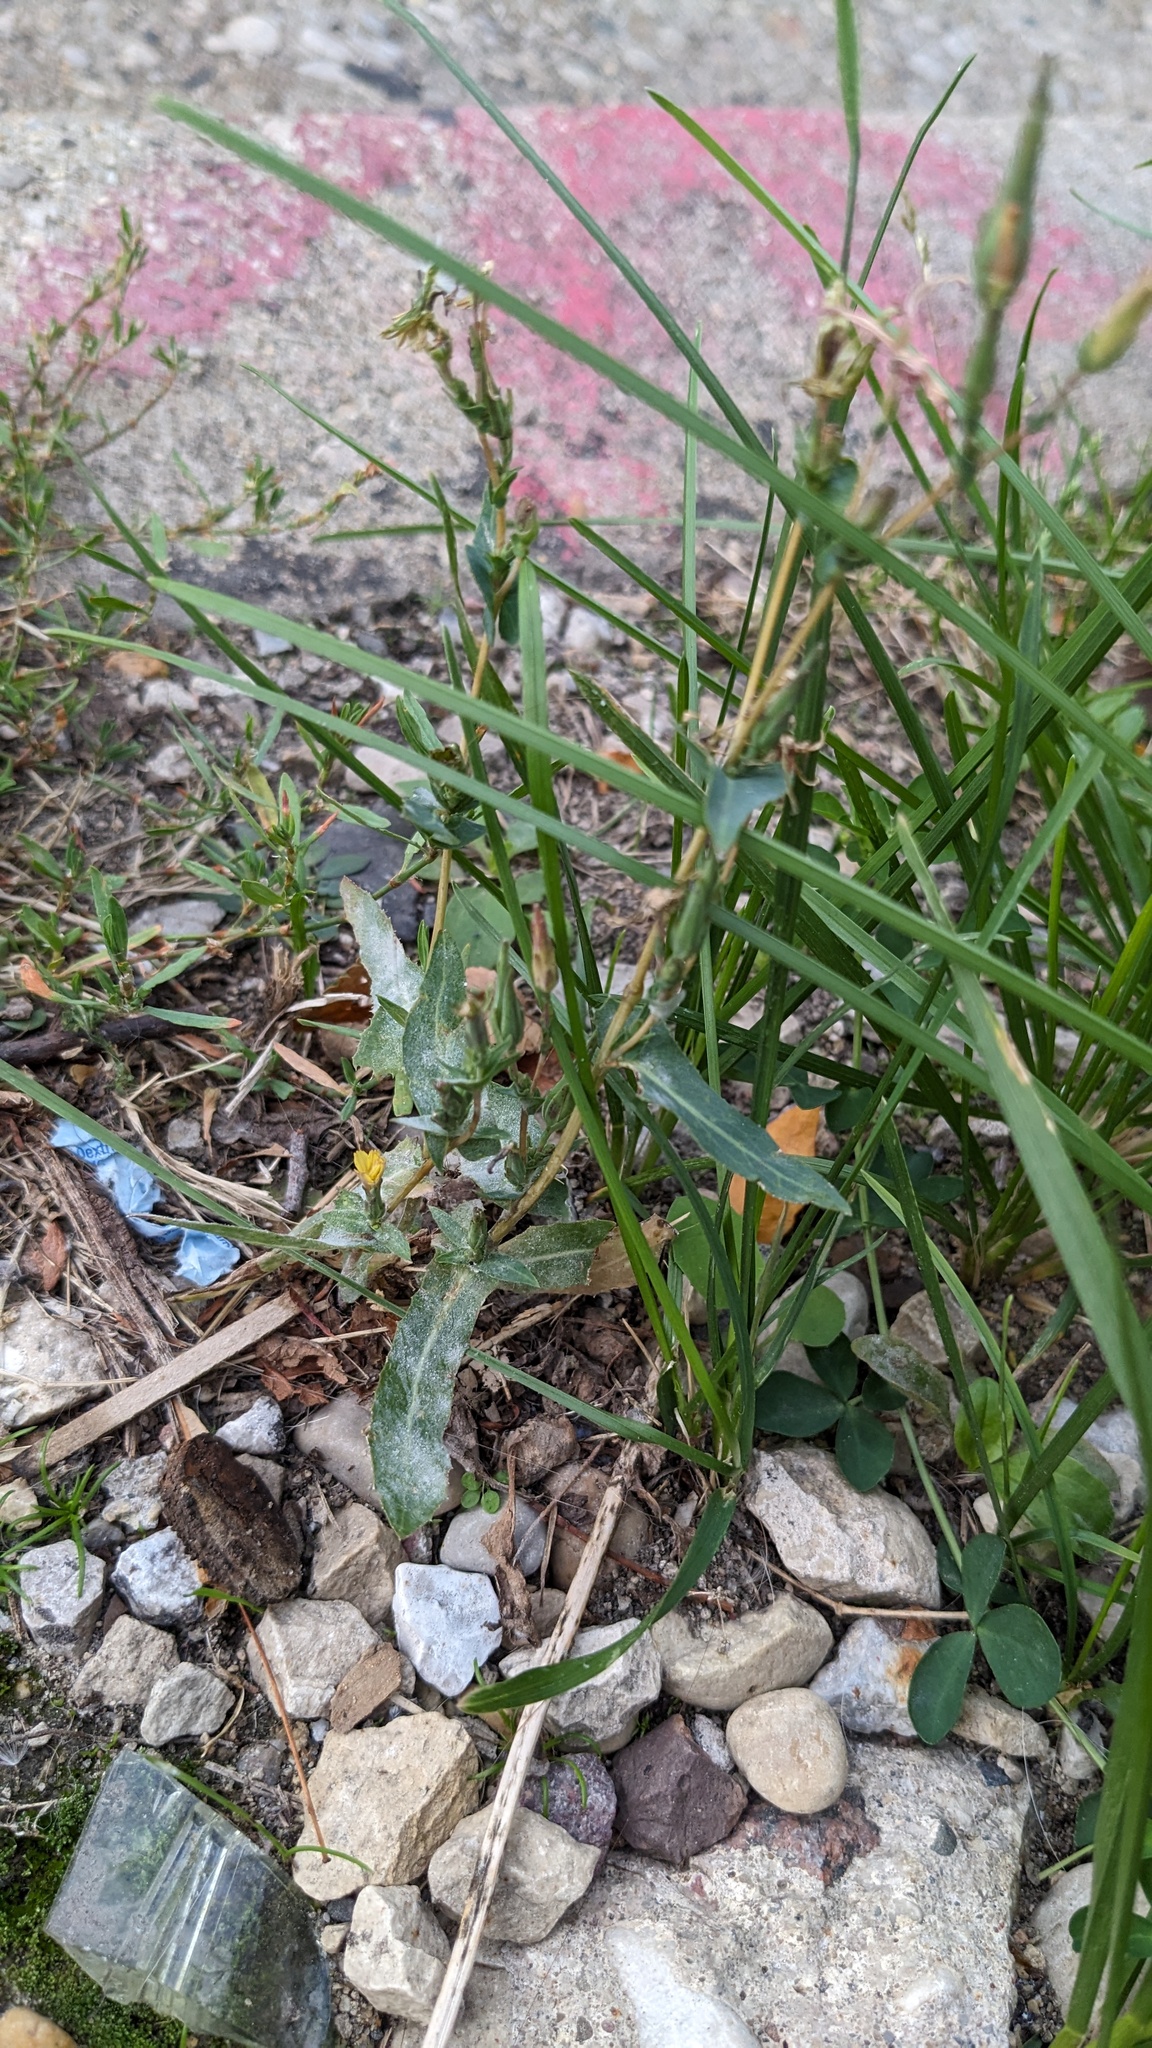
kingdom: Plantae
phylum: Tracheophyta
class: Magnoliopsida
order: Asterales
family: Asteraceae
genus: Lactuca
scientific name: Lactuca serriola
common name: Prickly lettuce
